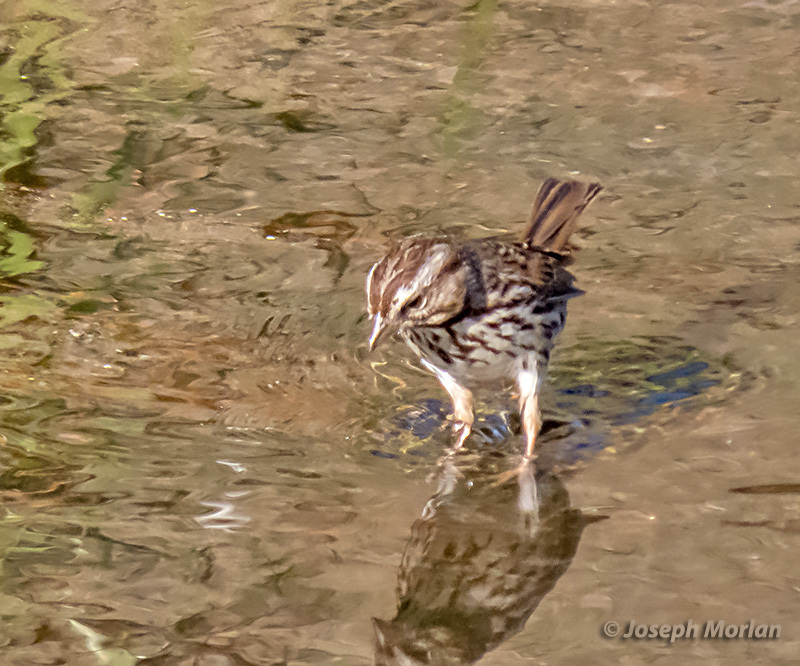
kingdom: Animalia
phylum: Chordata
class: Aves
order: Passeriformes
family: Passerellidae
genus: Melospiza
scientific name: Melospiza melodia
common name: Song sparrow
